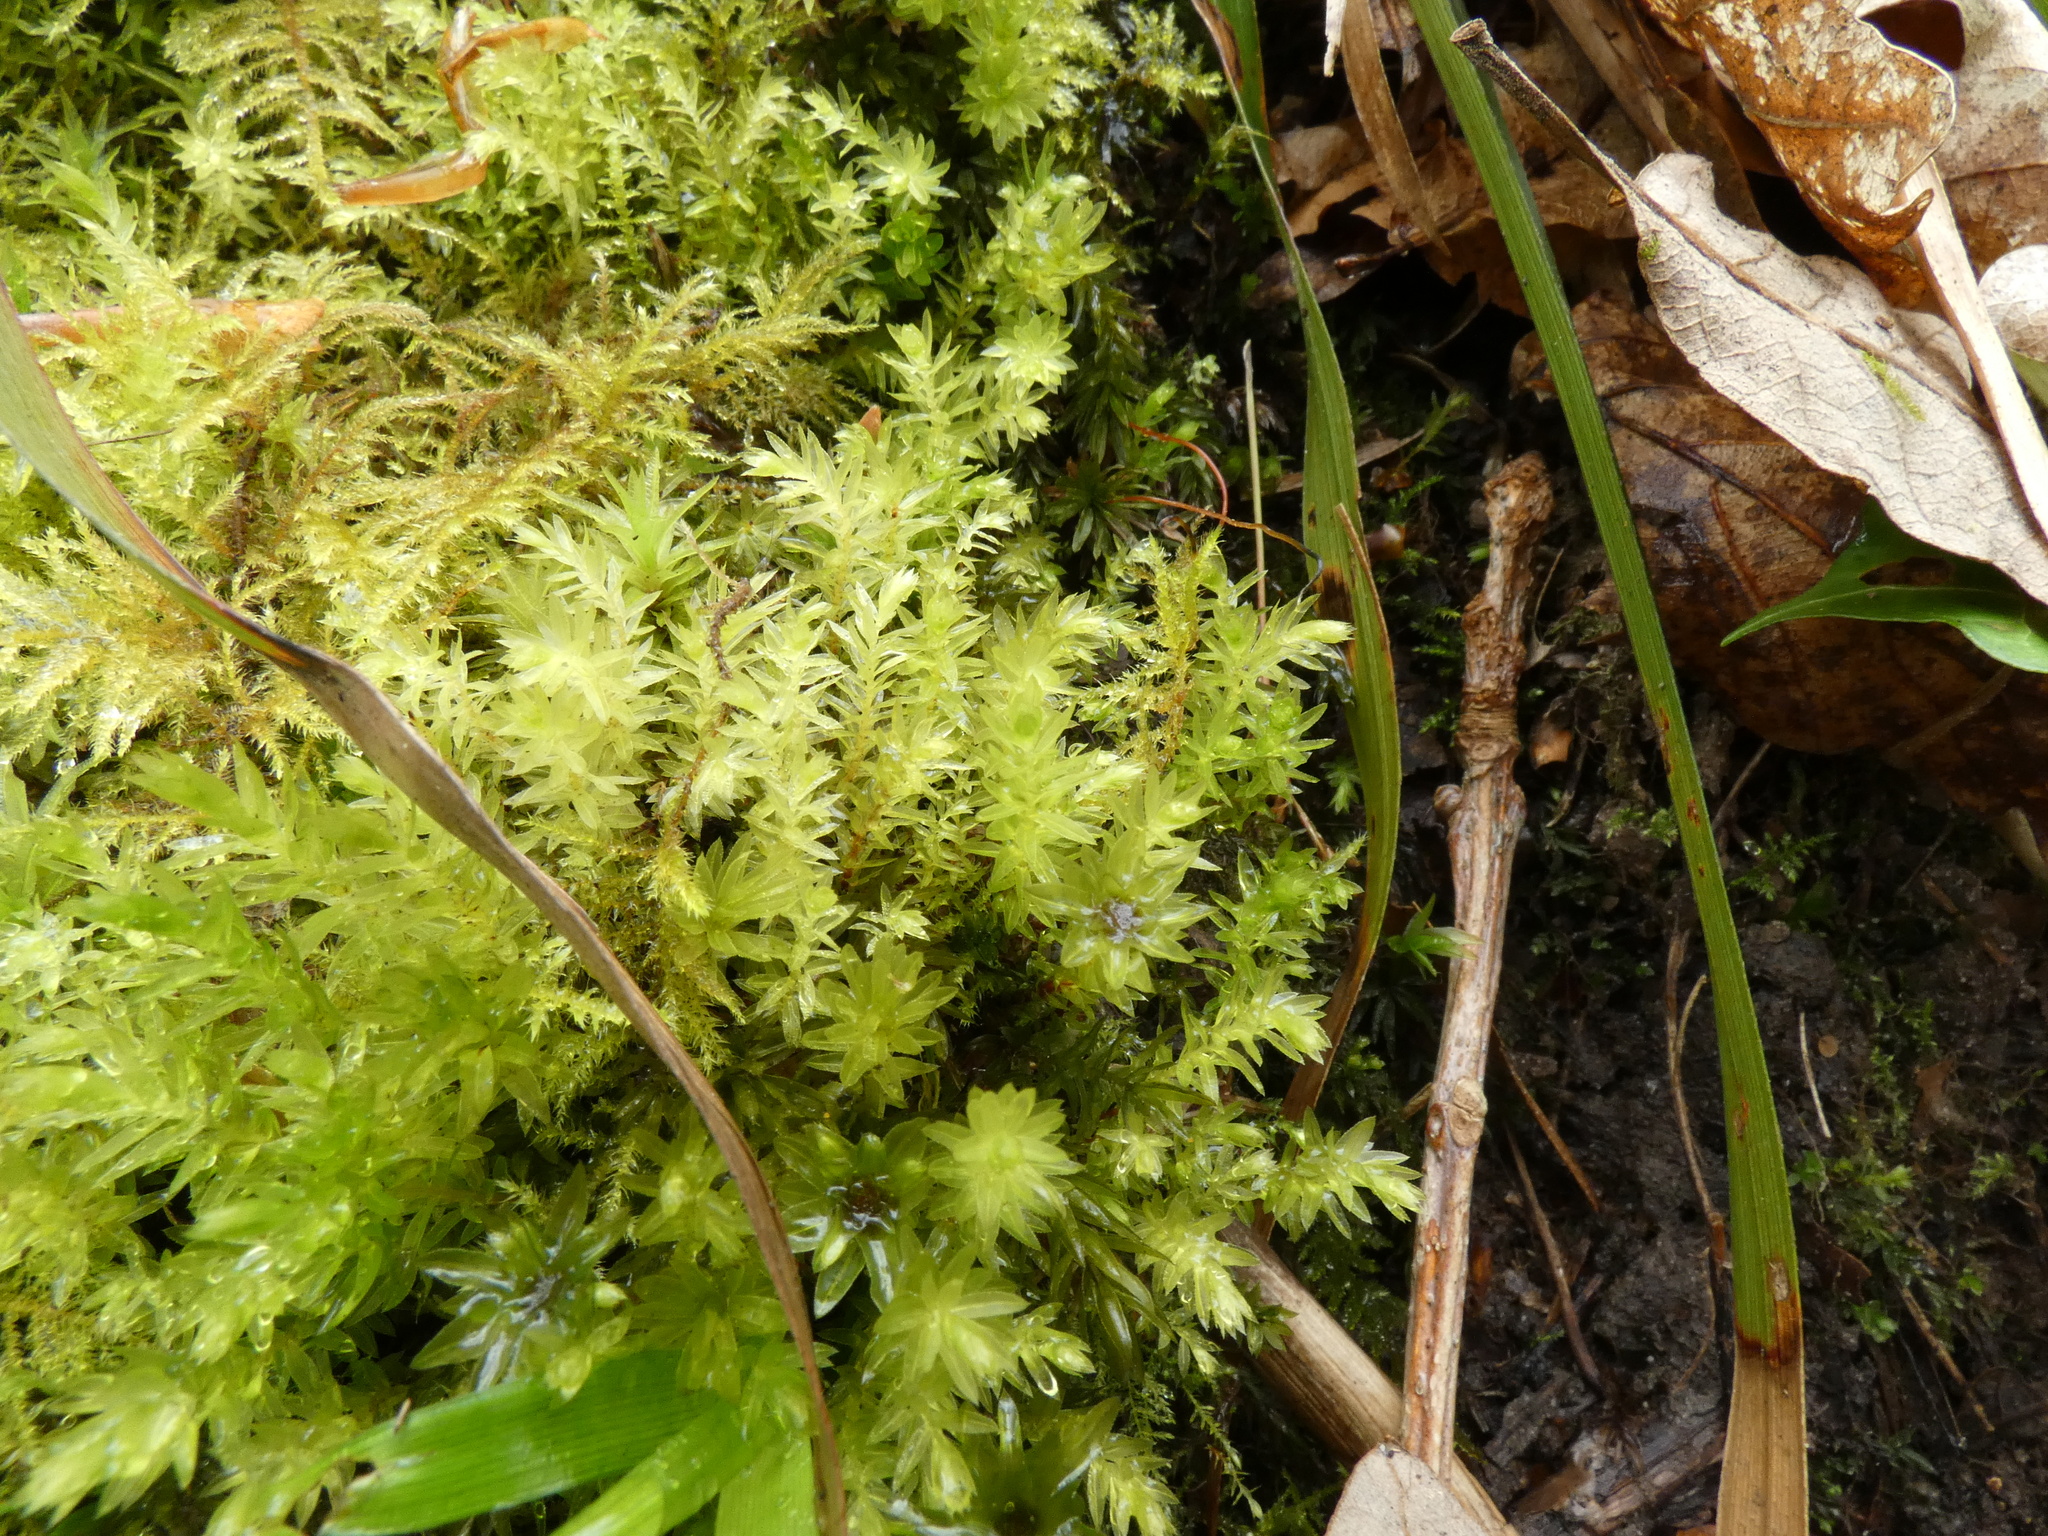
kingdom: Plantae
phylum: Bryophyta
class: Bryopsida
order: Bryales
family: Mniaceae
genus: Mnium
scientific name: Mnium hornum
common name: Swan's-neck leafy moss
